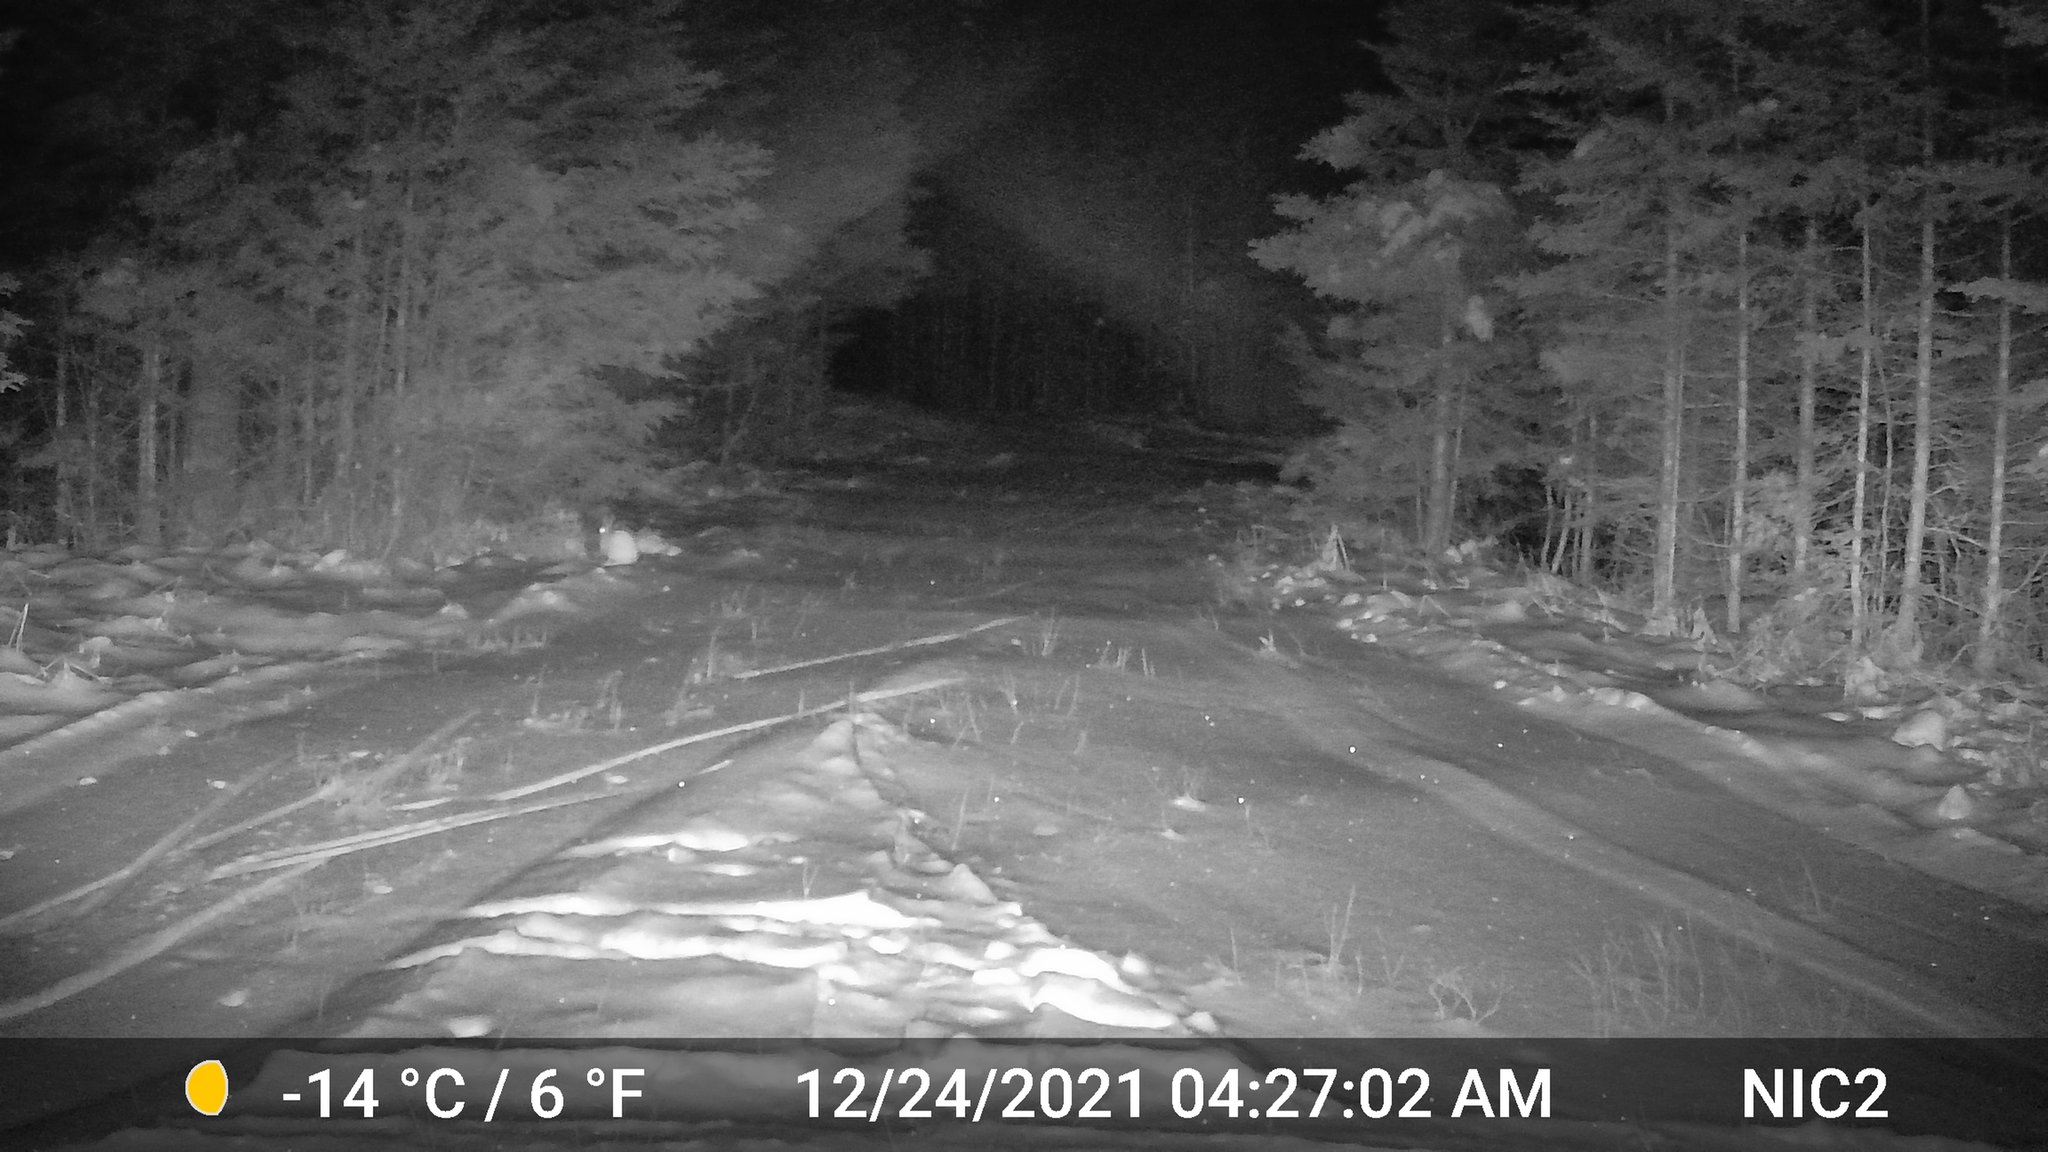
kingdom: Animalia
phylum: Chordata
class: Mammalia
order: Lagomorpha
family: Leporidae
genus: Lepus
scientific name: Lepus americanus
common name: Snowshoe hare
